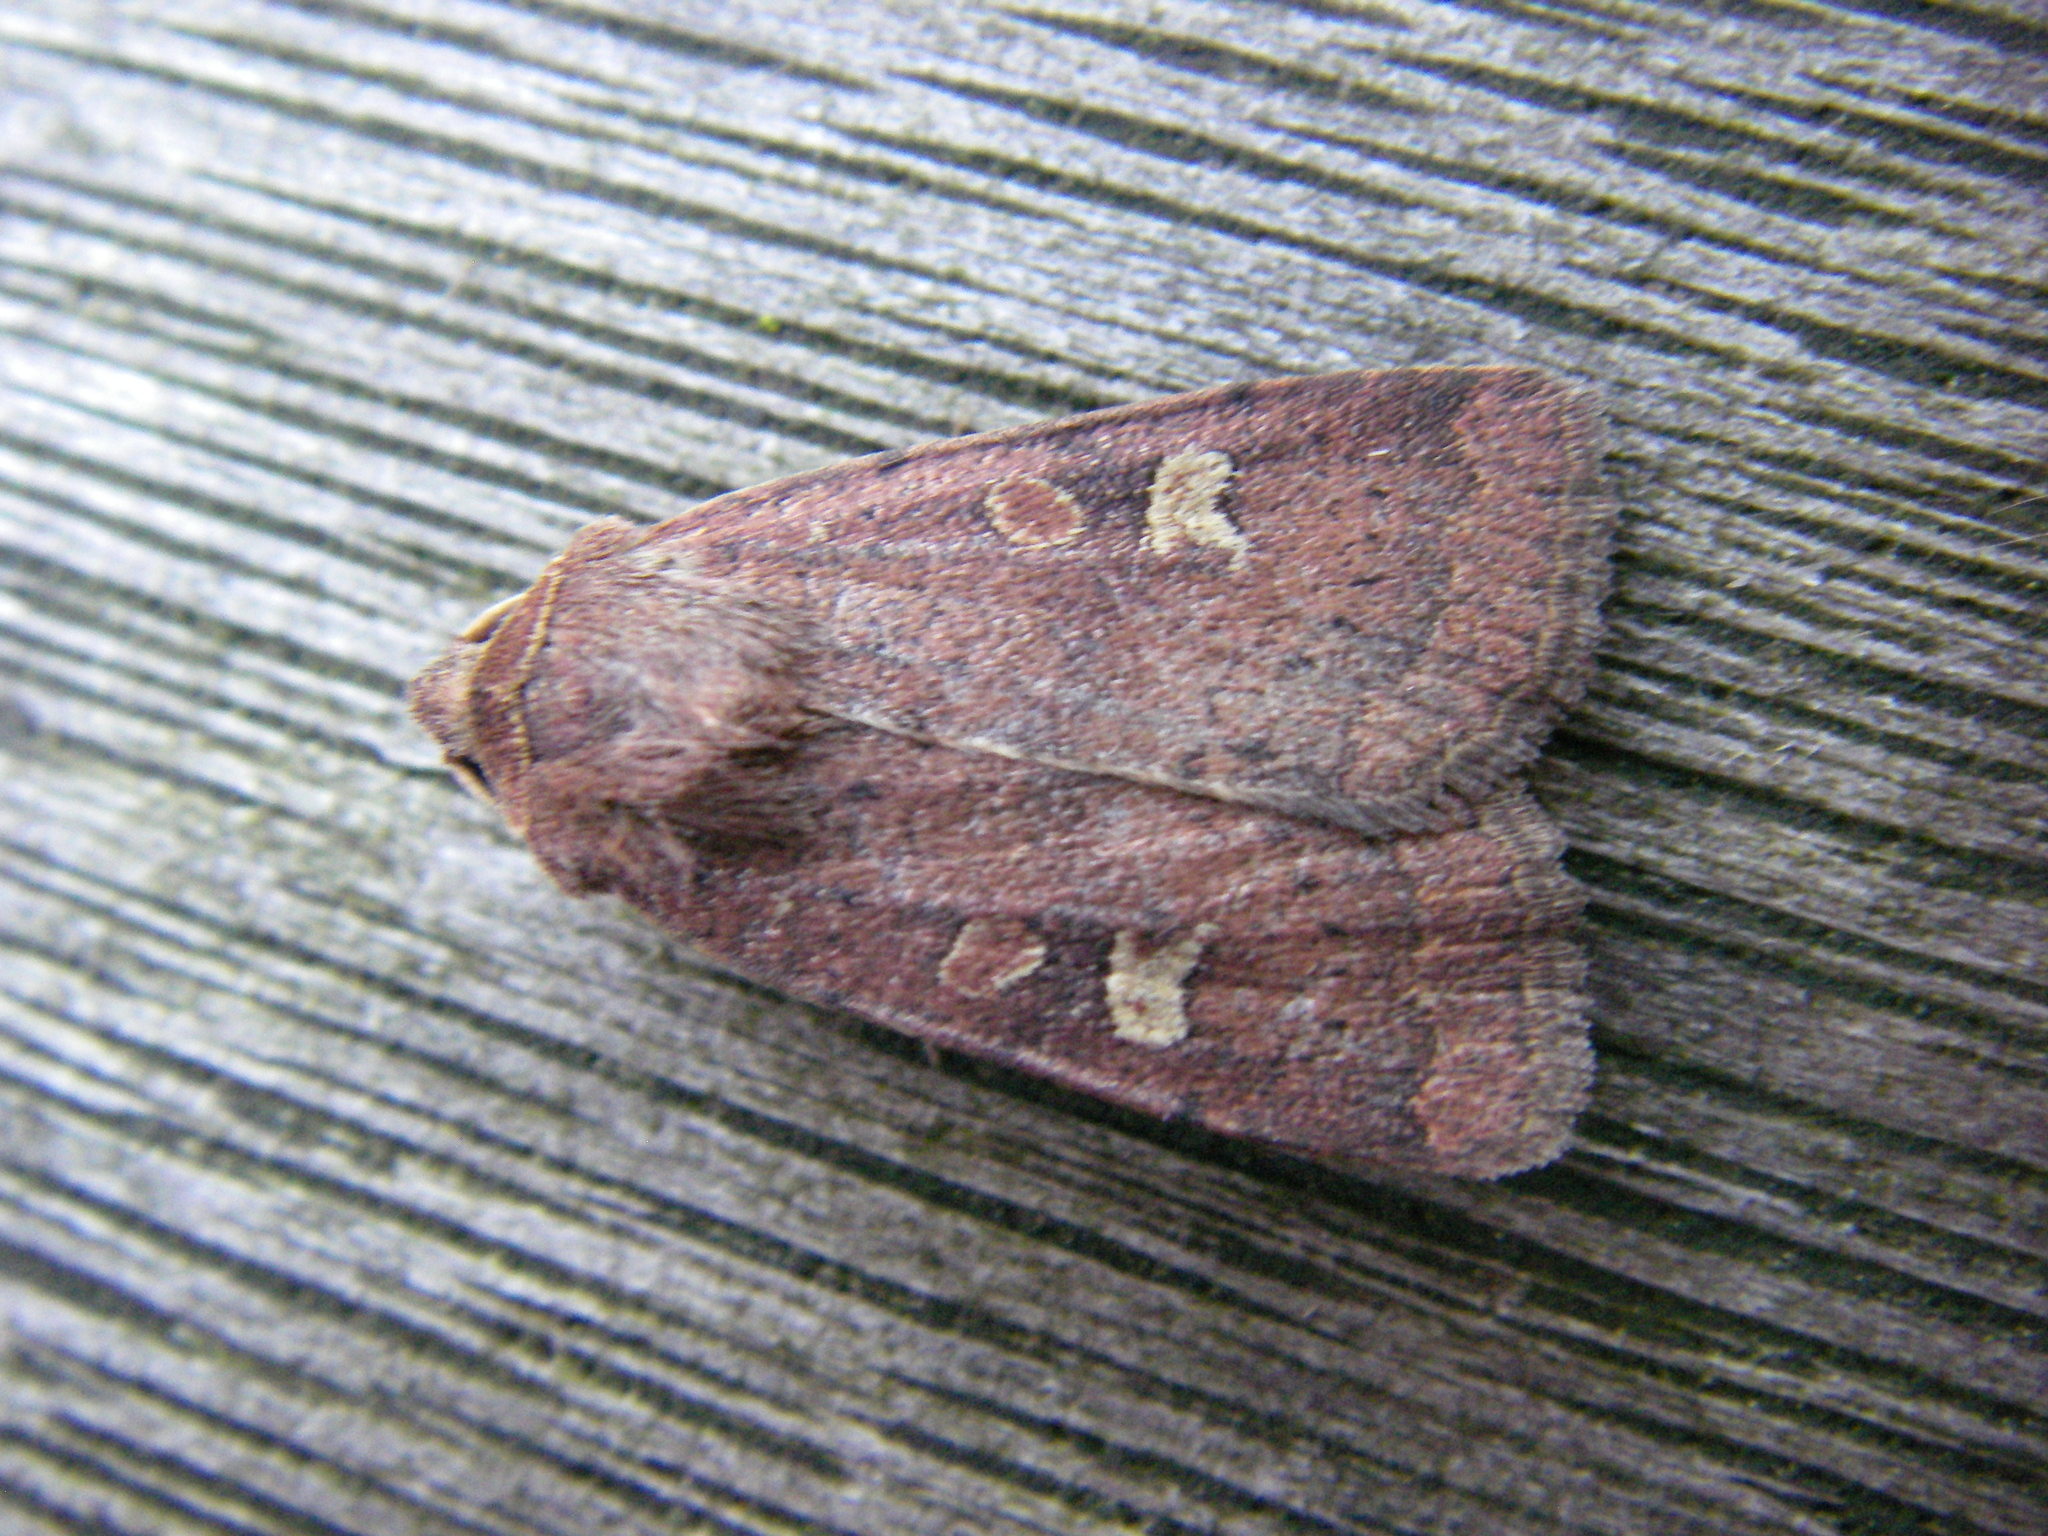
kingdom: Animalia
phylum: Arthropoda
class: Insecta
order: Lepidoptera
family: Noctuidae
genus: Xestia
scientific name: Xestia xanthographa
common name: Square-spot rustic
